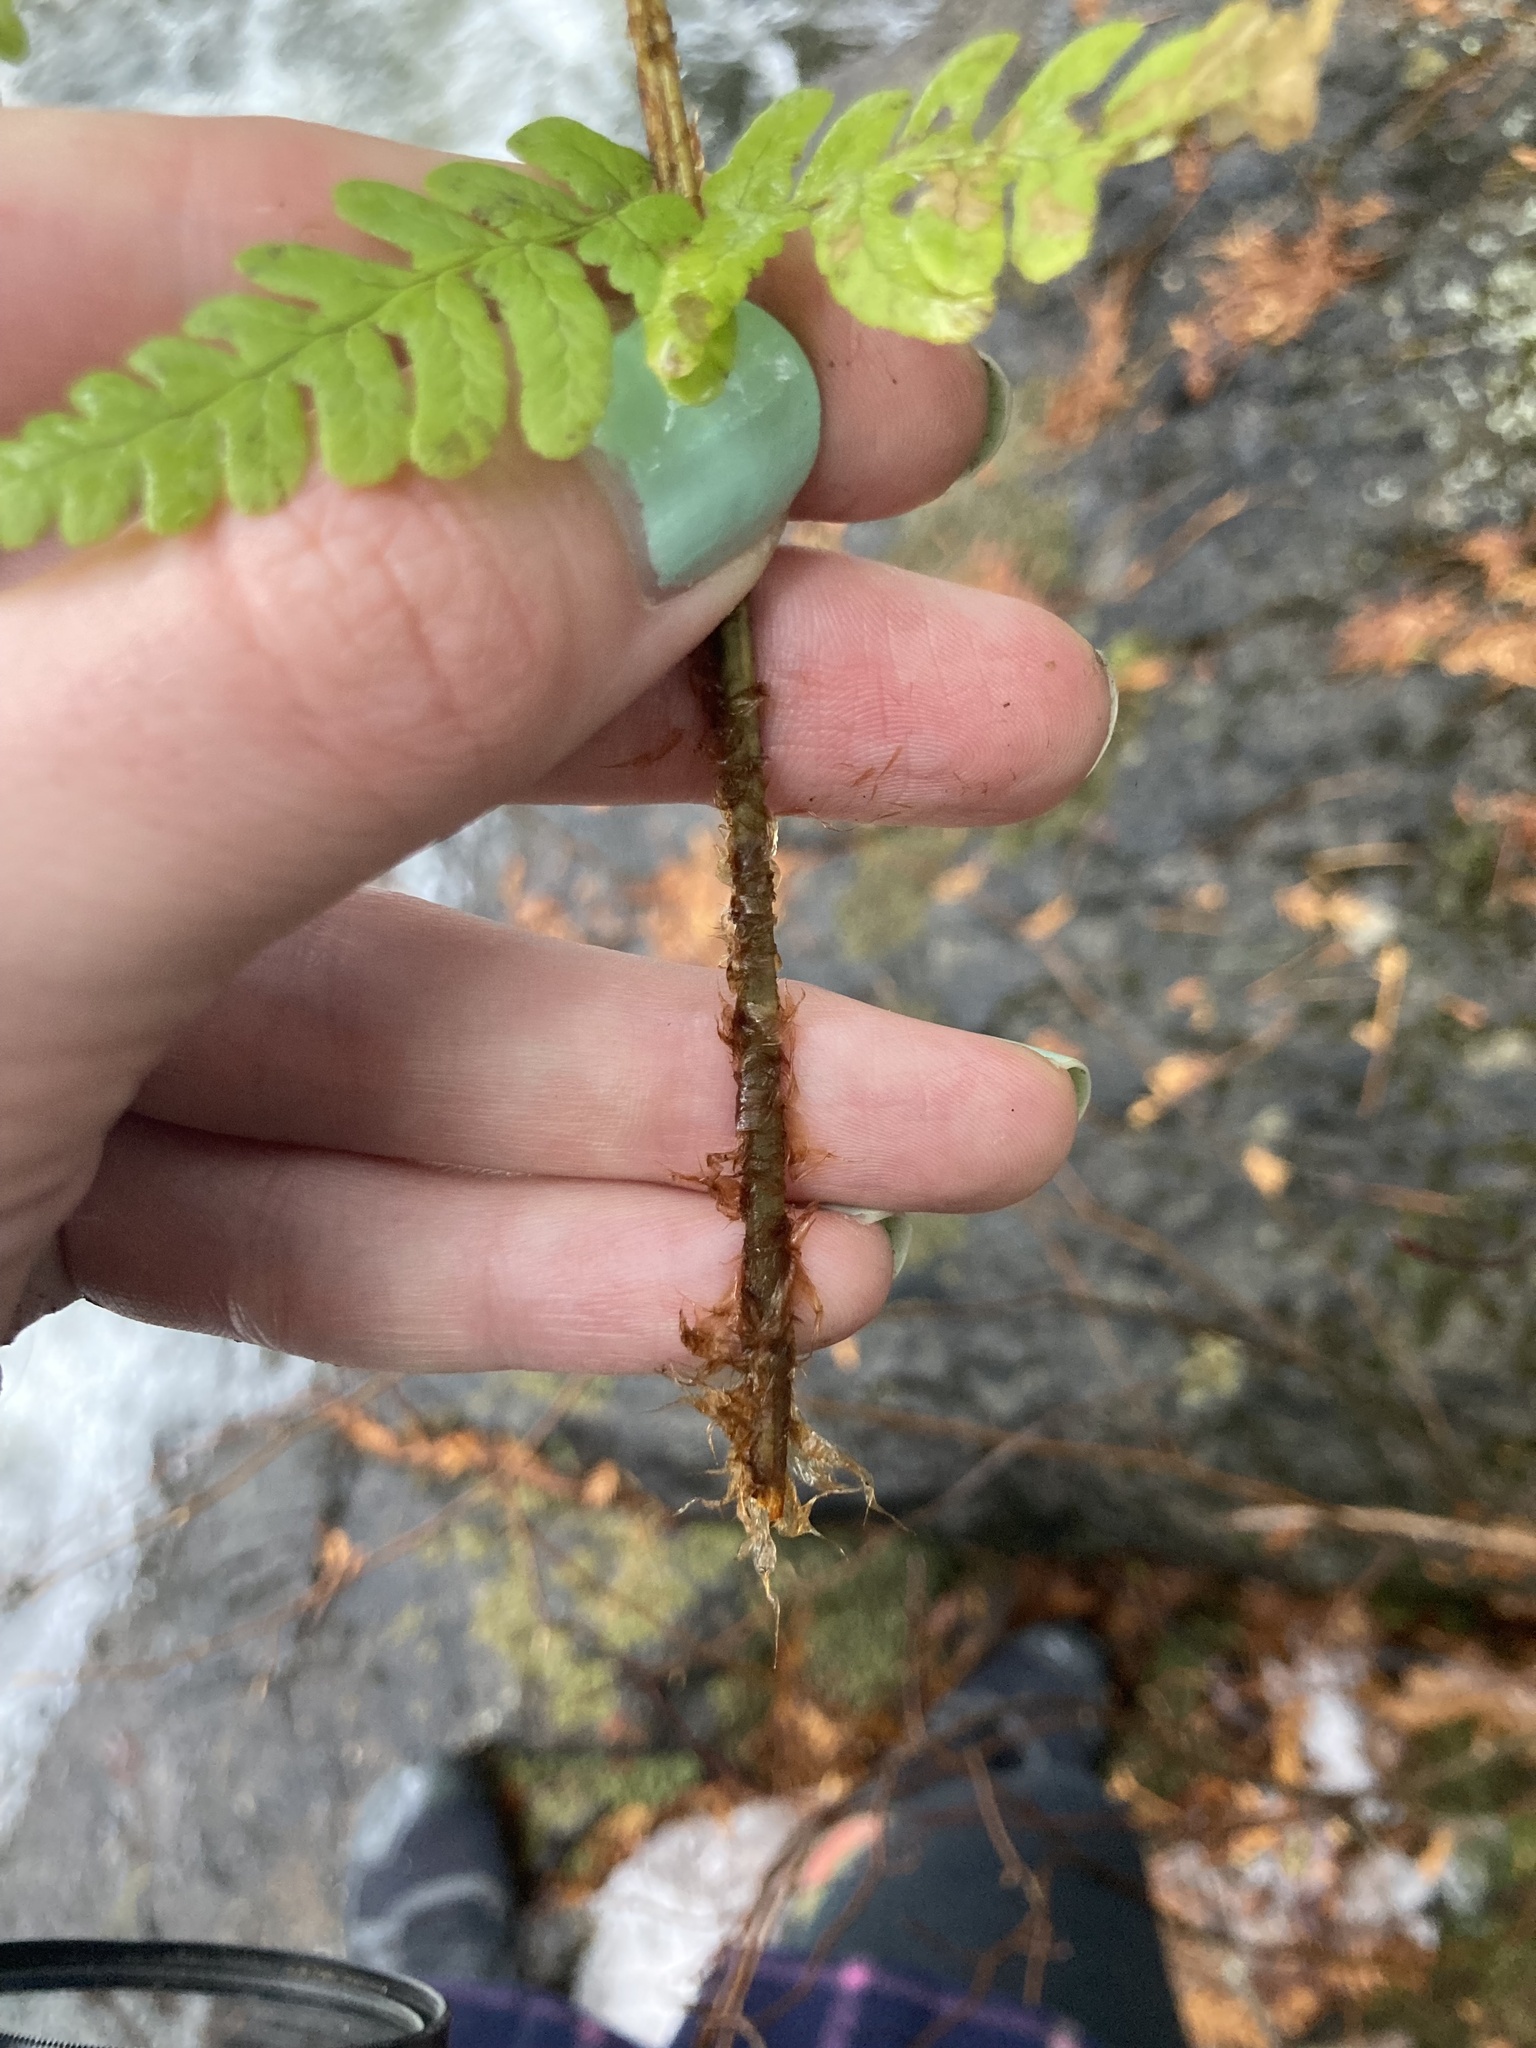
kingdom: Plantae
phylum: Tracheophyta
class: Polypodiopsida
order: Polypodiales
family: Dryopteridaceae
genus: Dryopteris
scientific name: Dryopteris marginalis
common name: Marginal wood fern
